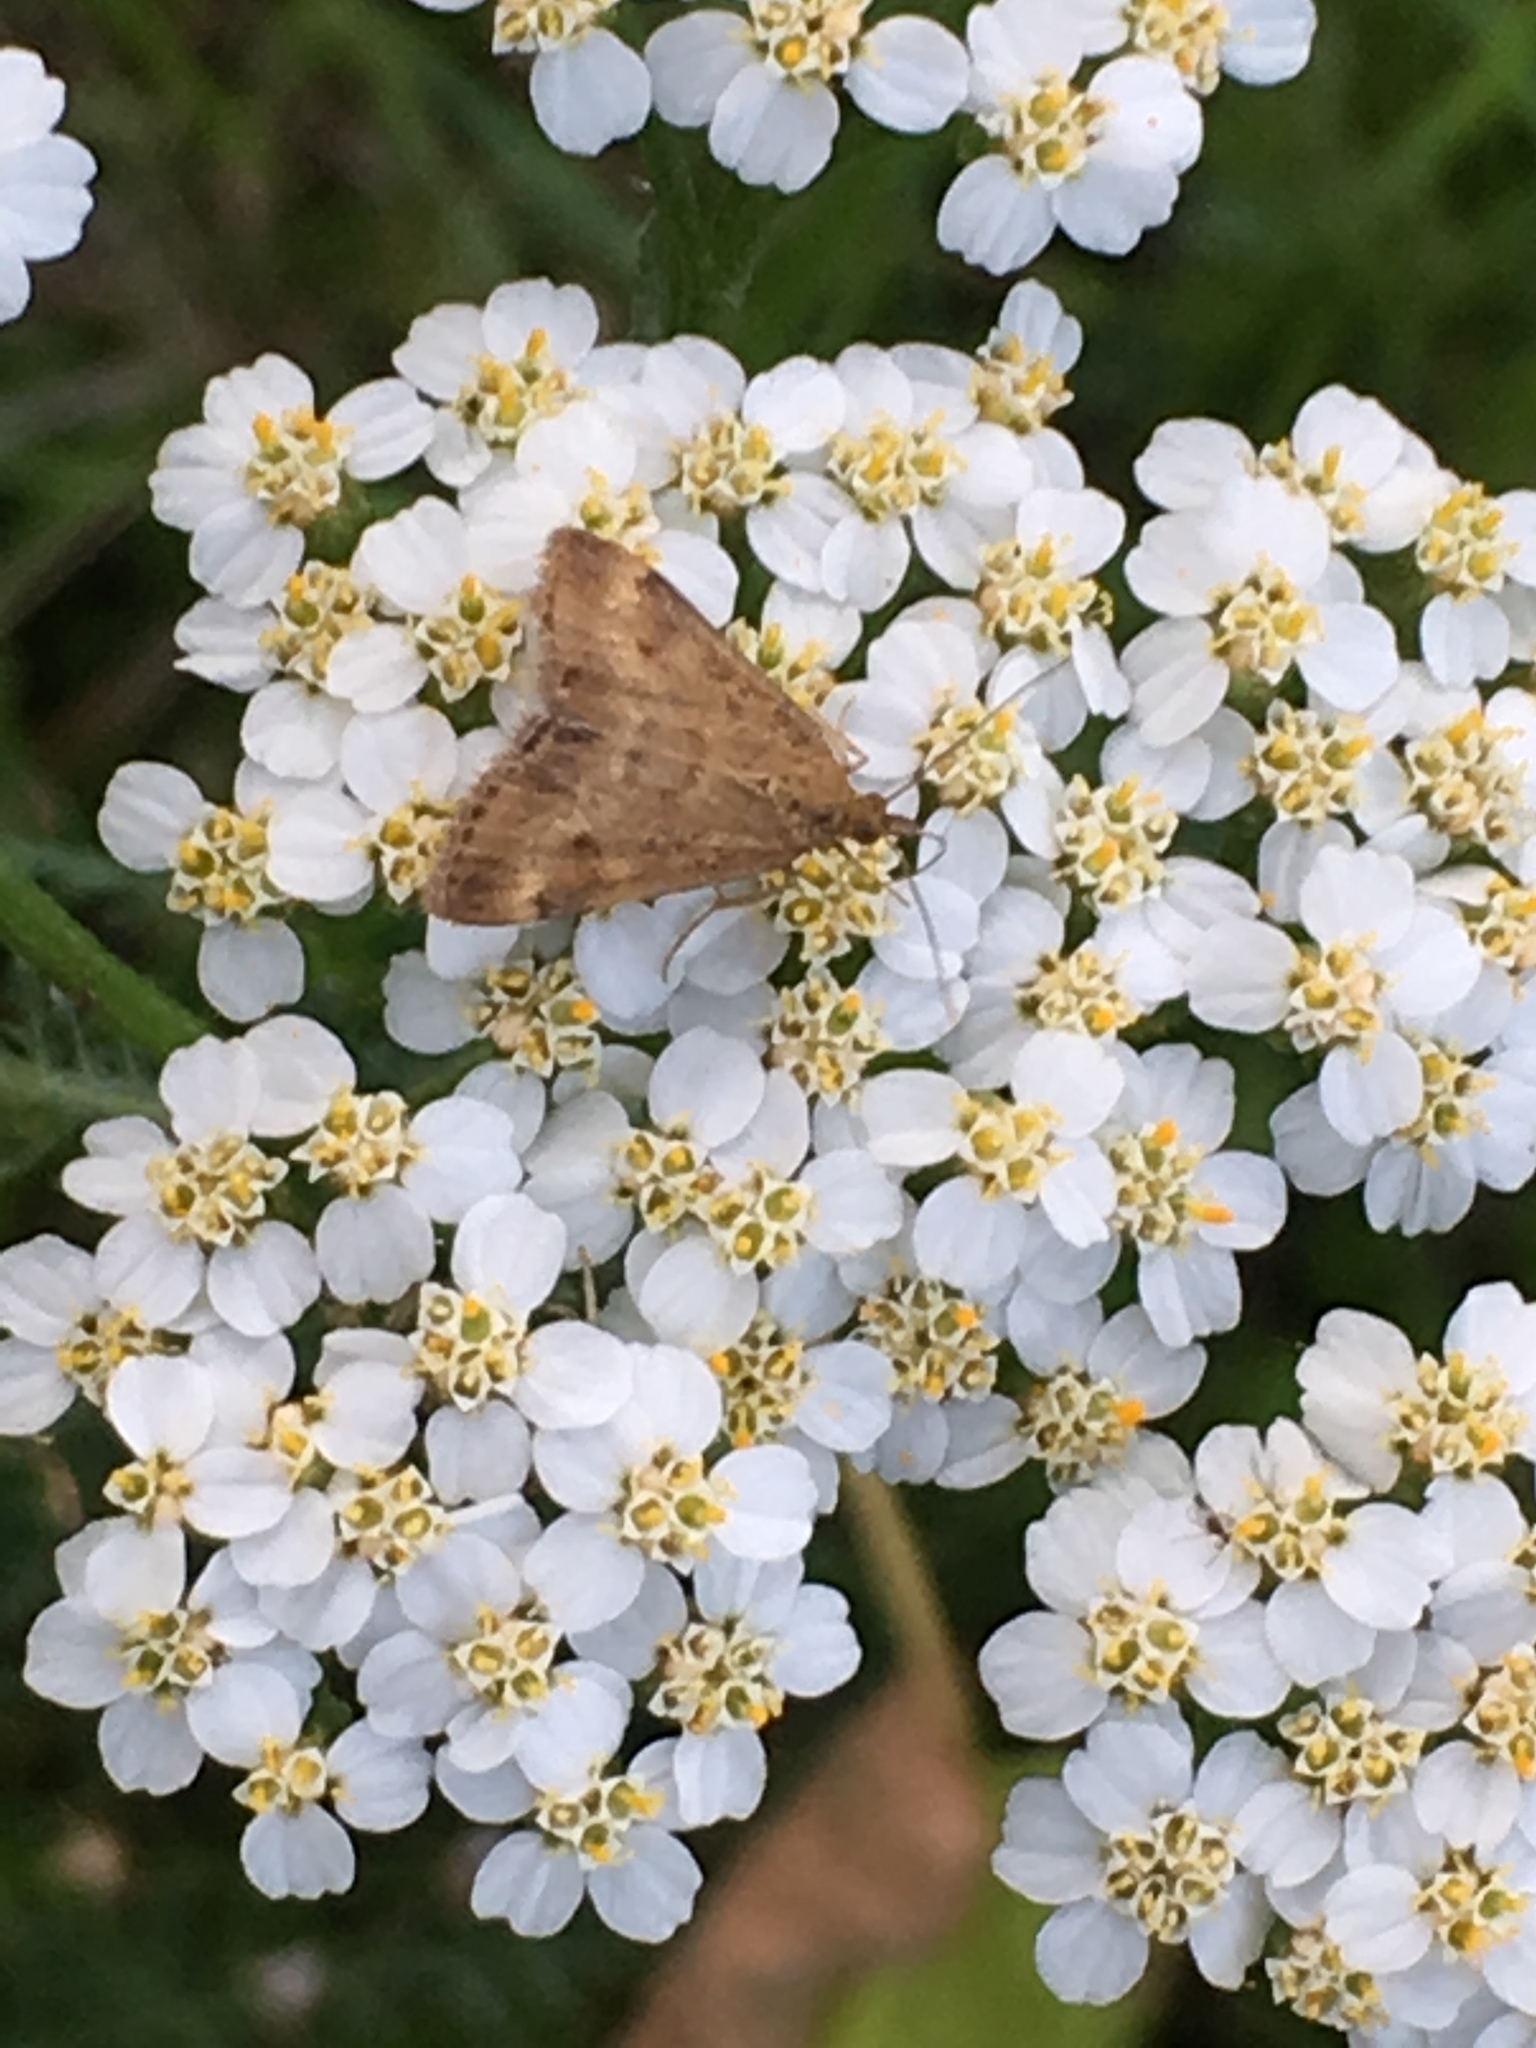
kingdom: Animalia
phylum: Arthropoda
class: Insecta
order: Lepidoptera
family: Crambidae
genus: Pyrausta
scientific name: Pyrausta despicata
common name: Straw-barred pearl
